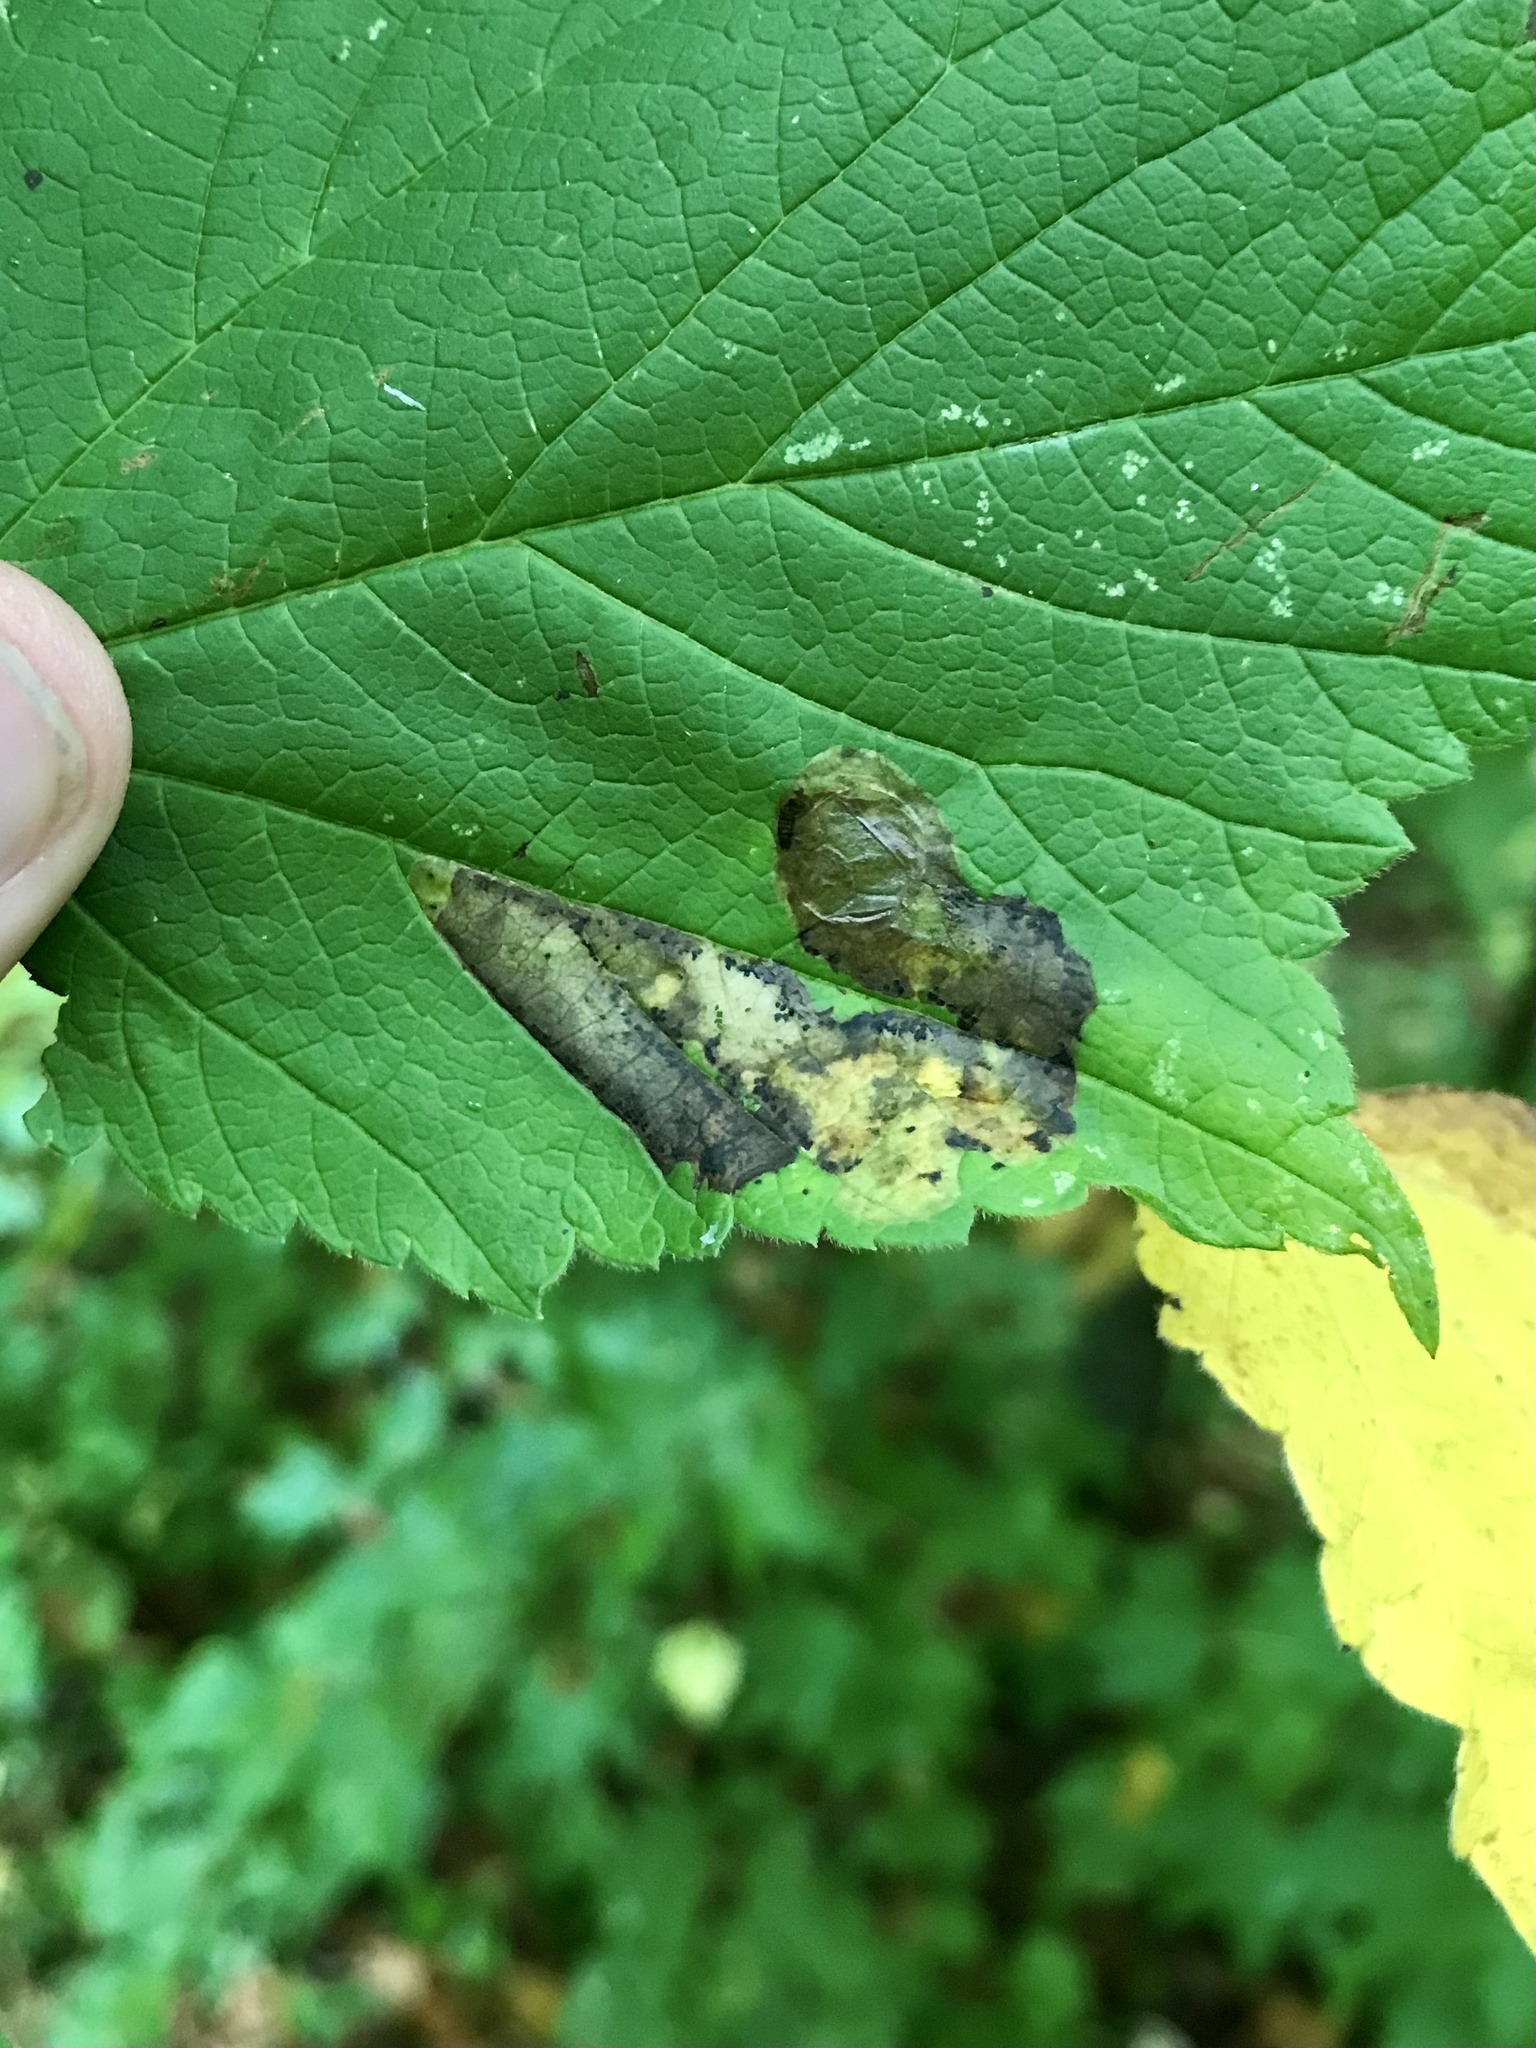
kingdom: Animalia
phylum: Arthropoda
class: Insecta
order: Lepidoptera
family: Gracillariidae
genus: Cameraria
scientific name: Cameraria aceriella
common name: Maple leafblotch miner
